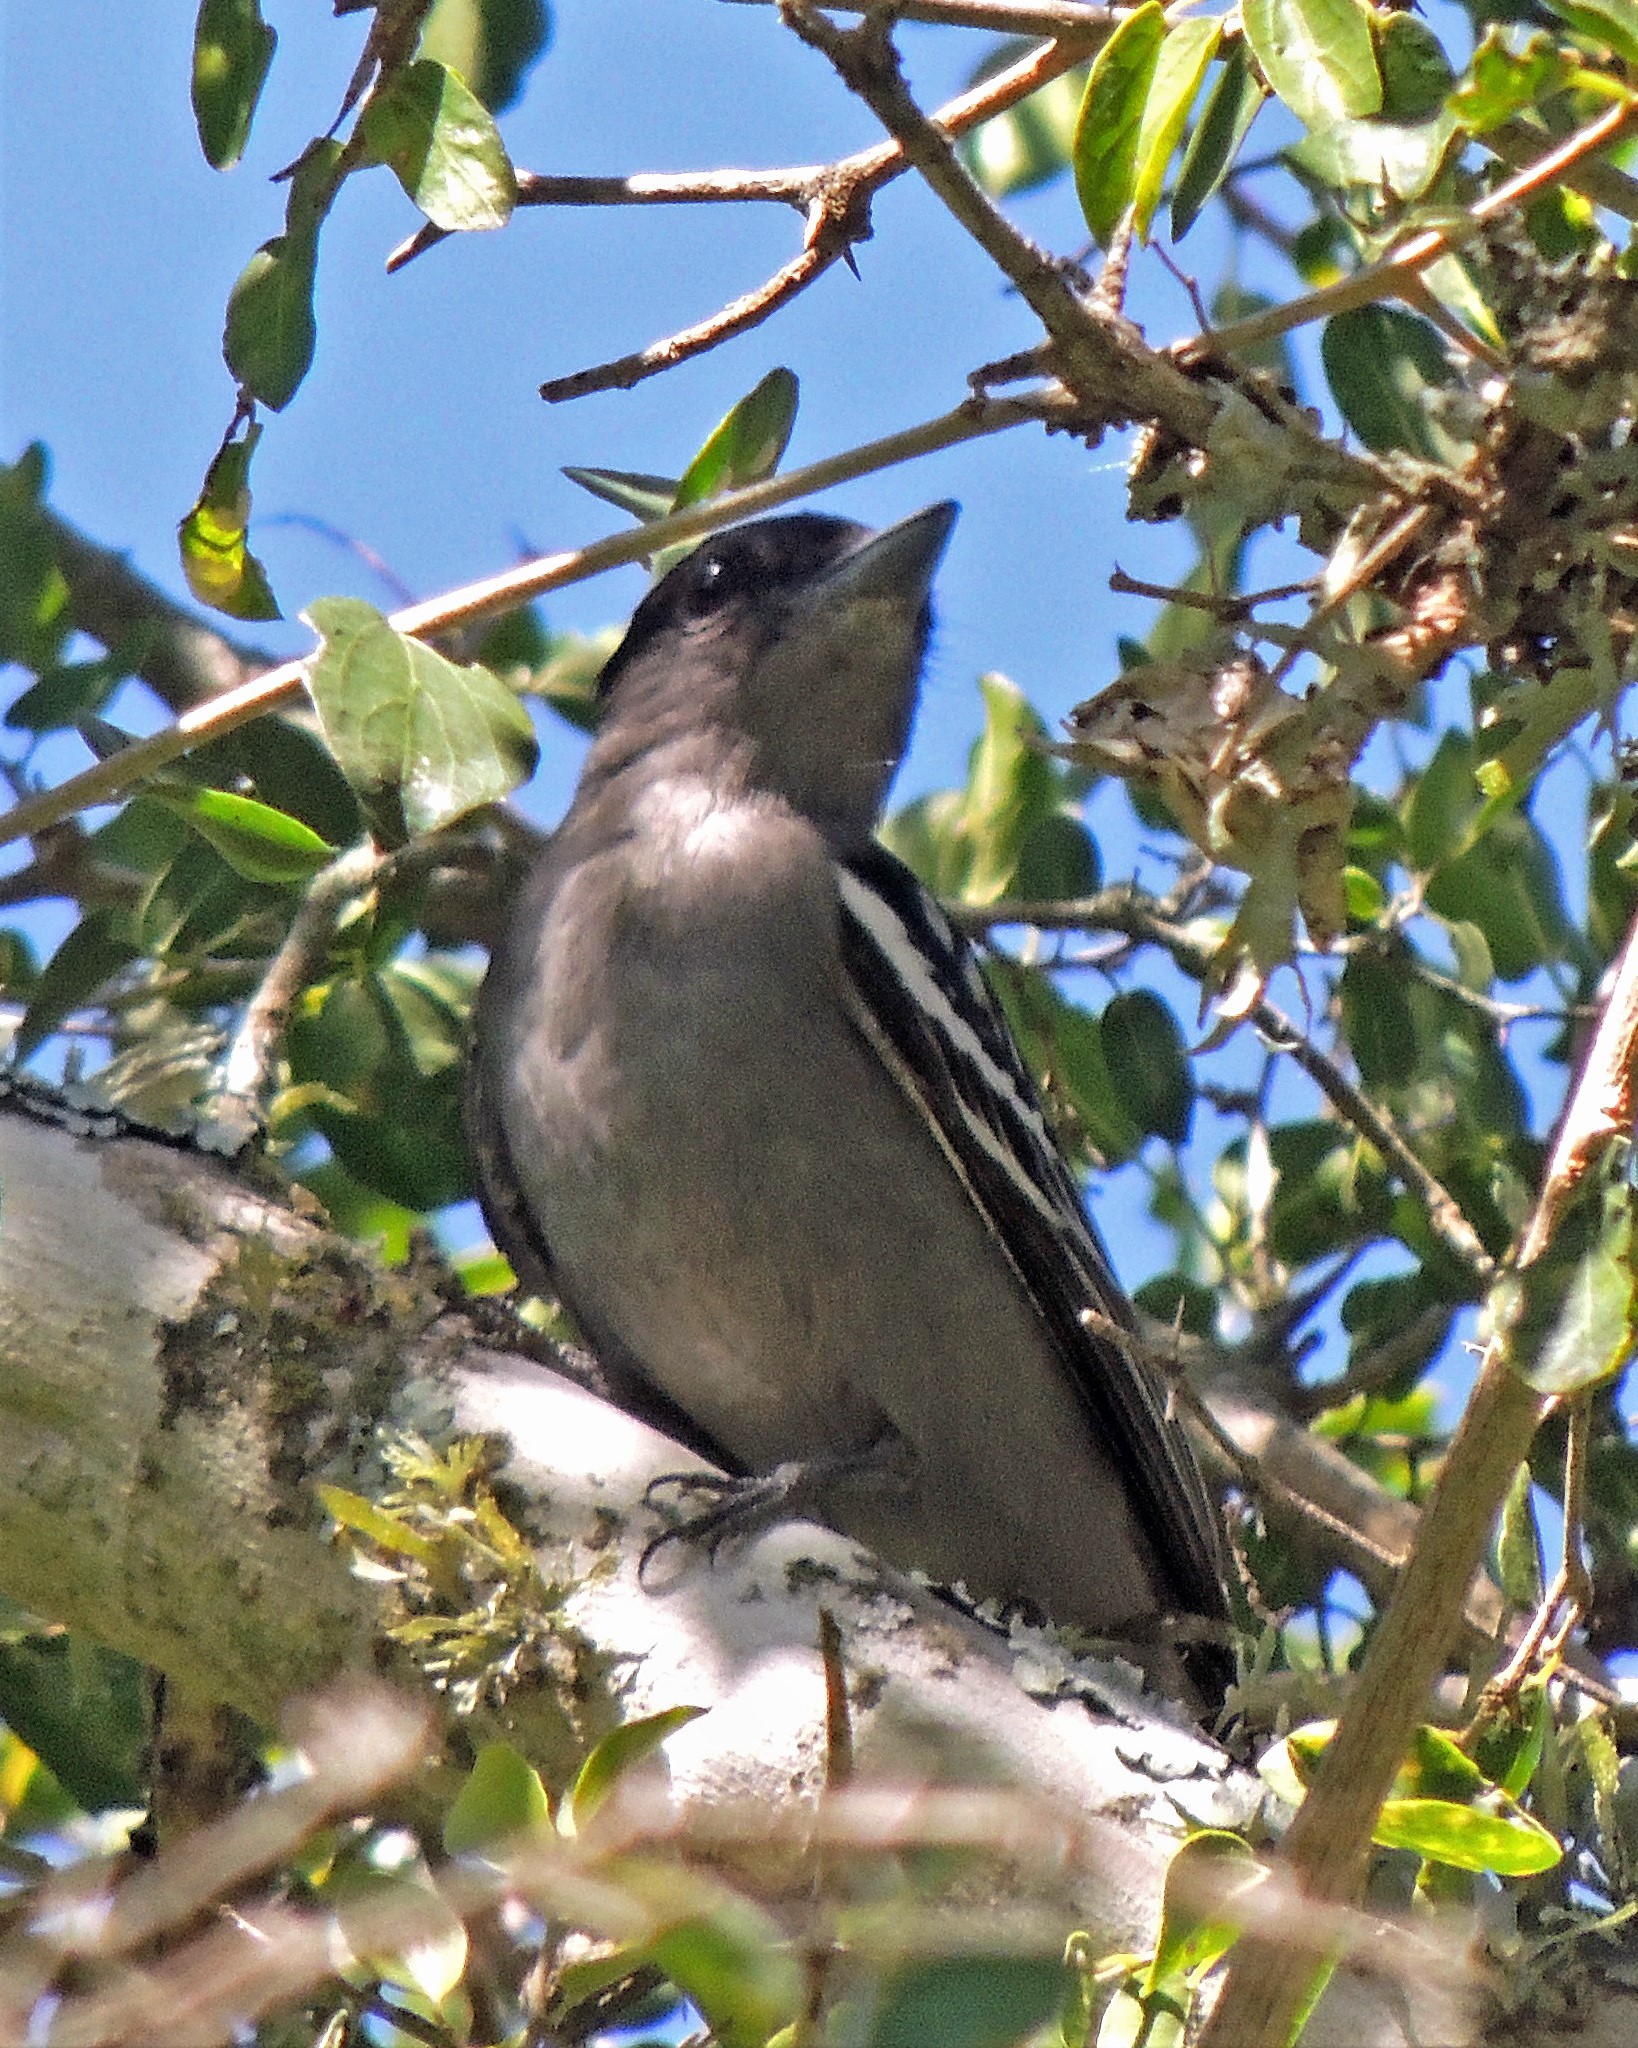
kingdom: Animalia
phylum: Chordata
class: Aves
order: Passeriformes
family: Cotingidae
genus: Pachyramphus
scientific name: Pachyramphus polychopterus
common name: White-winged becard
